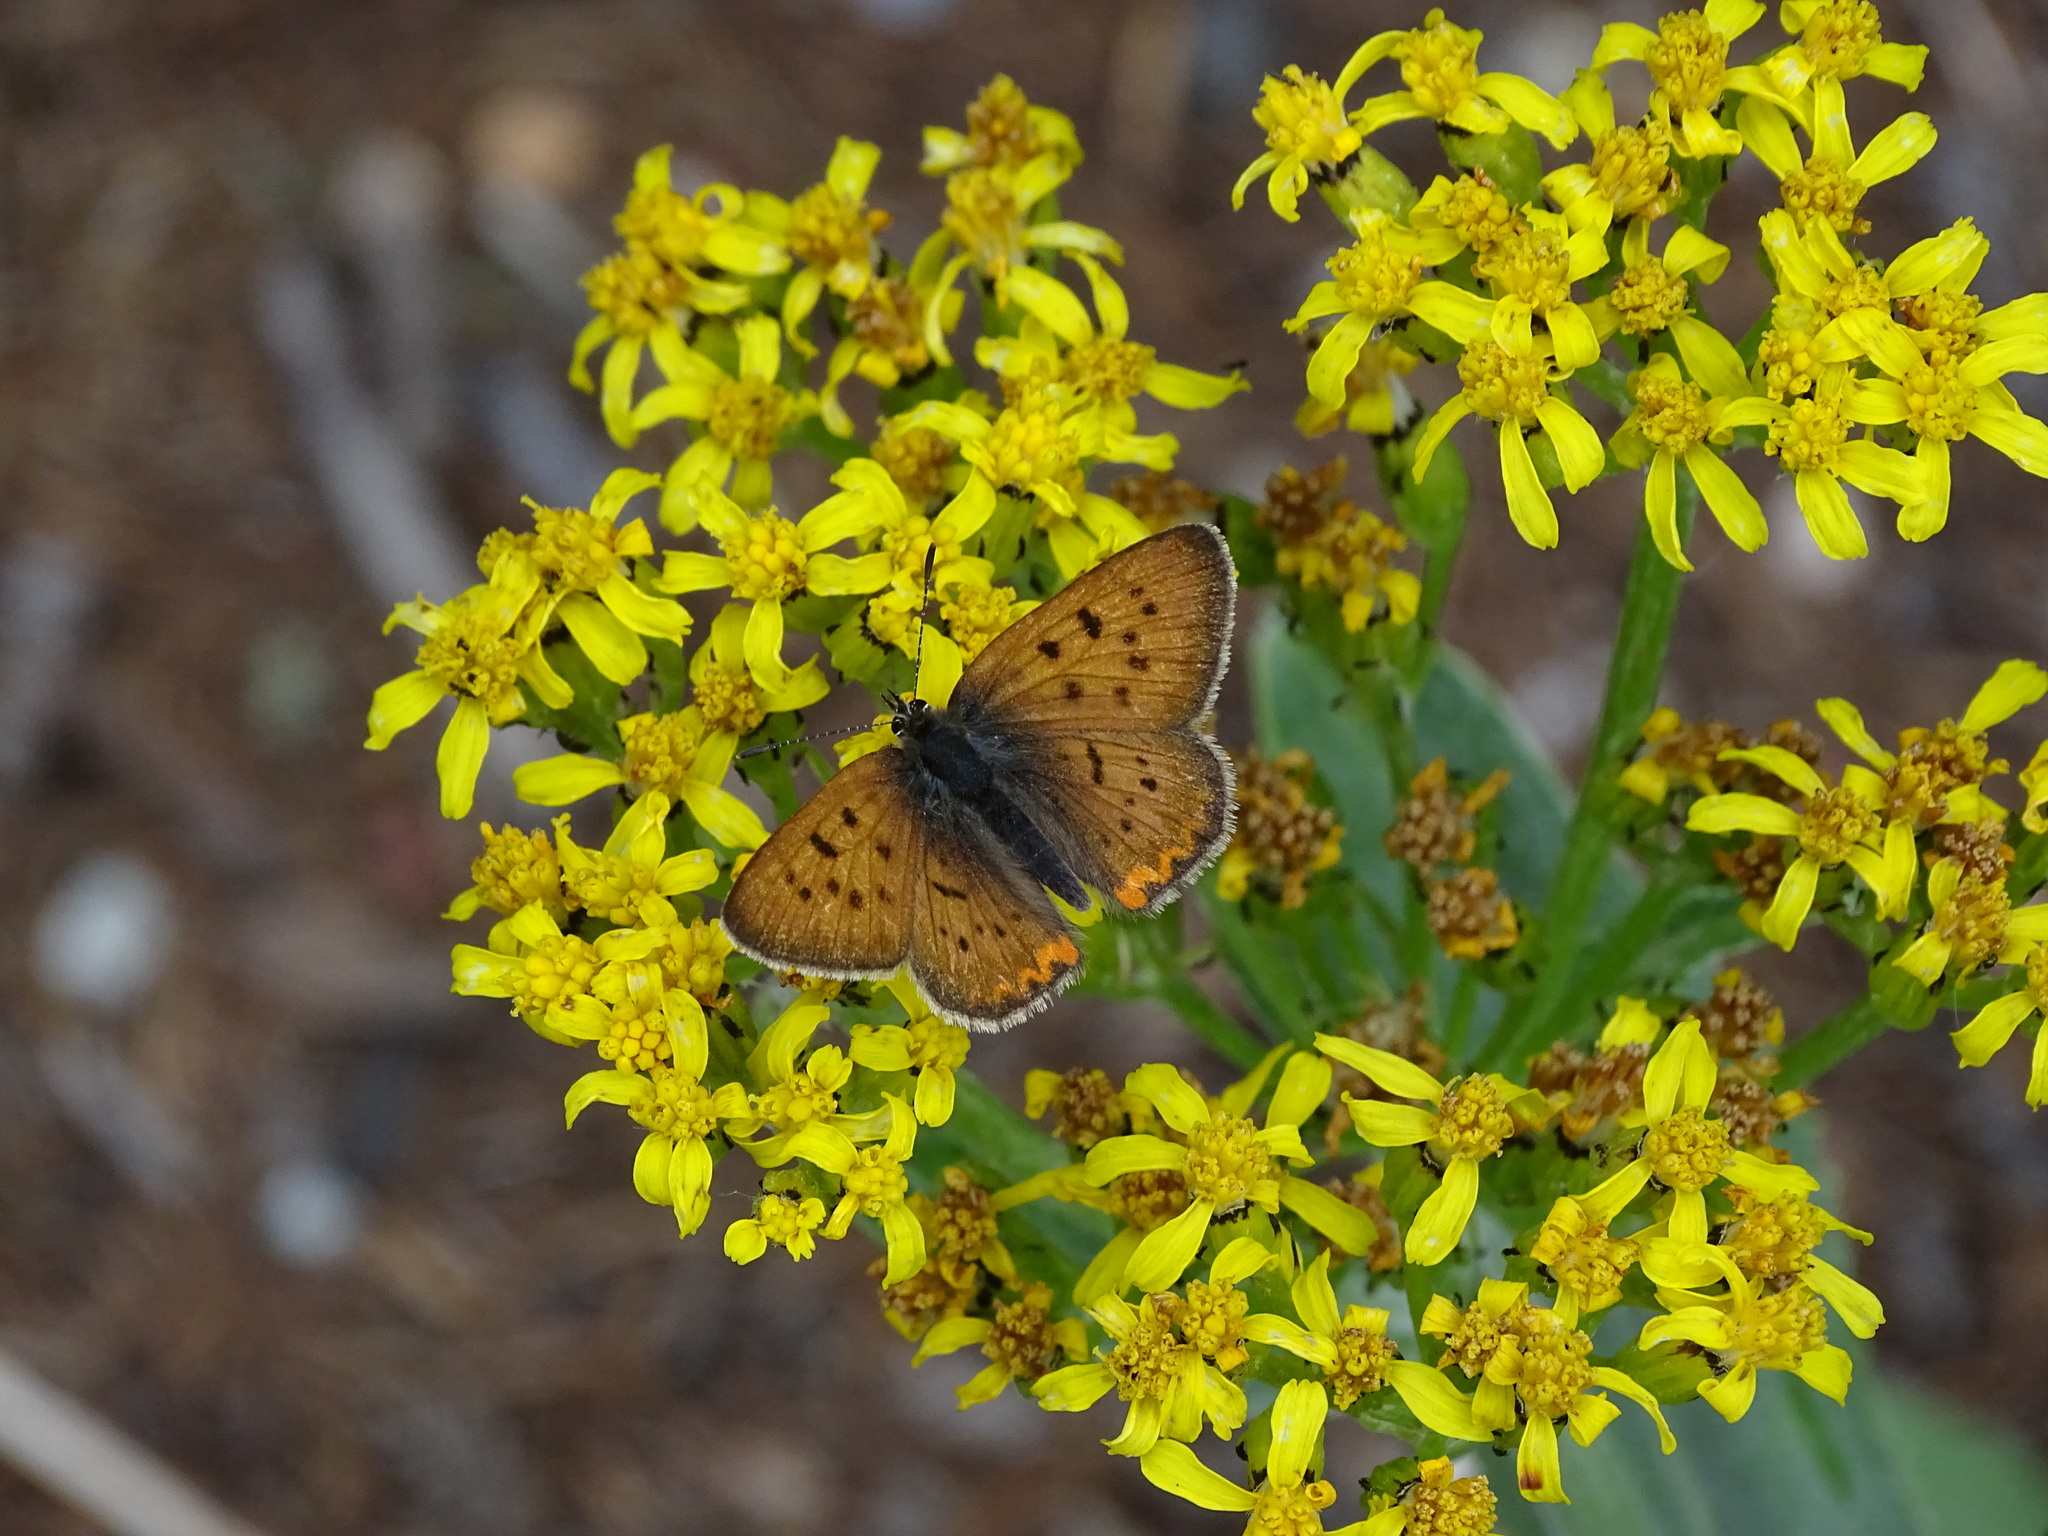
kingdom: Animalia
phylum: Arthropoda
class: Insecta
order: Lepidoptera
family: Lycaenidae
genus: Tharsalea
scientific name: Tharsalea helloides
